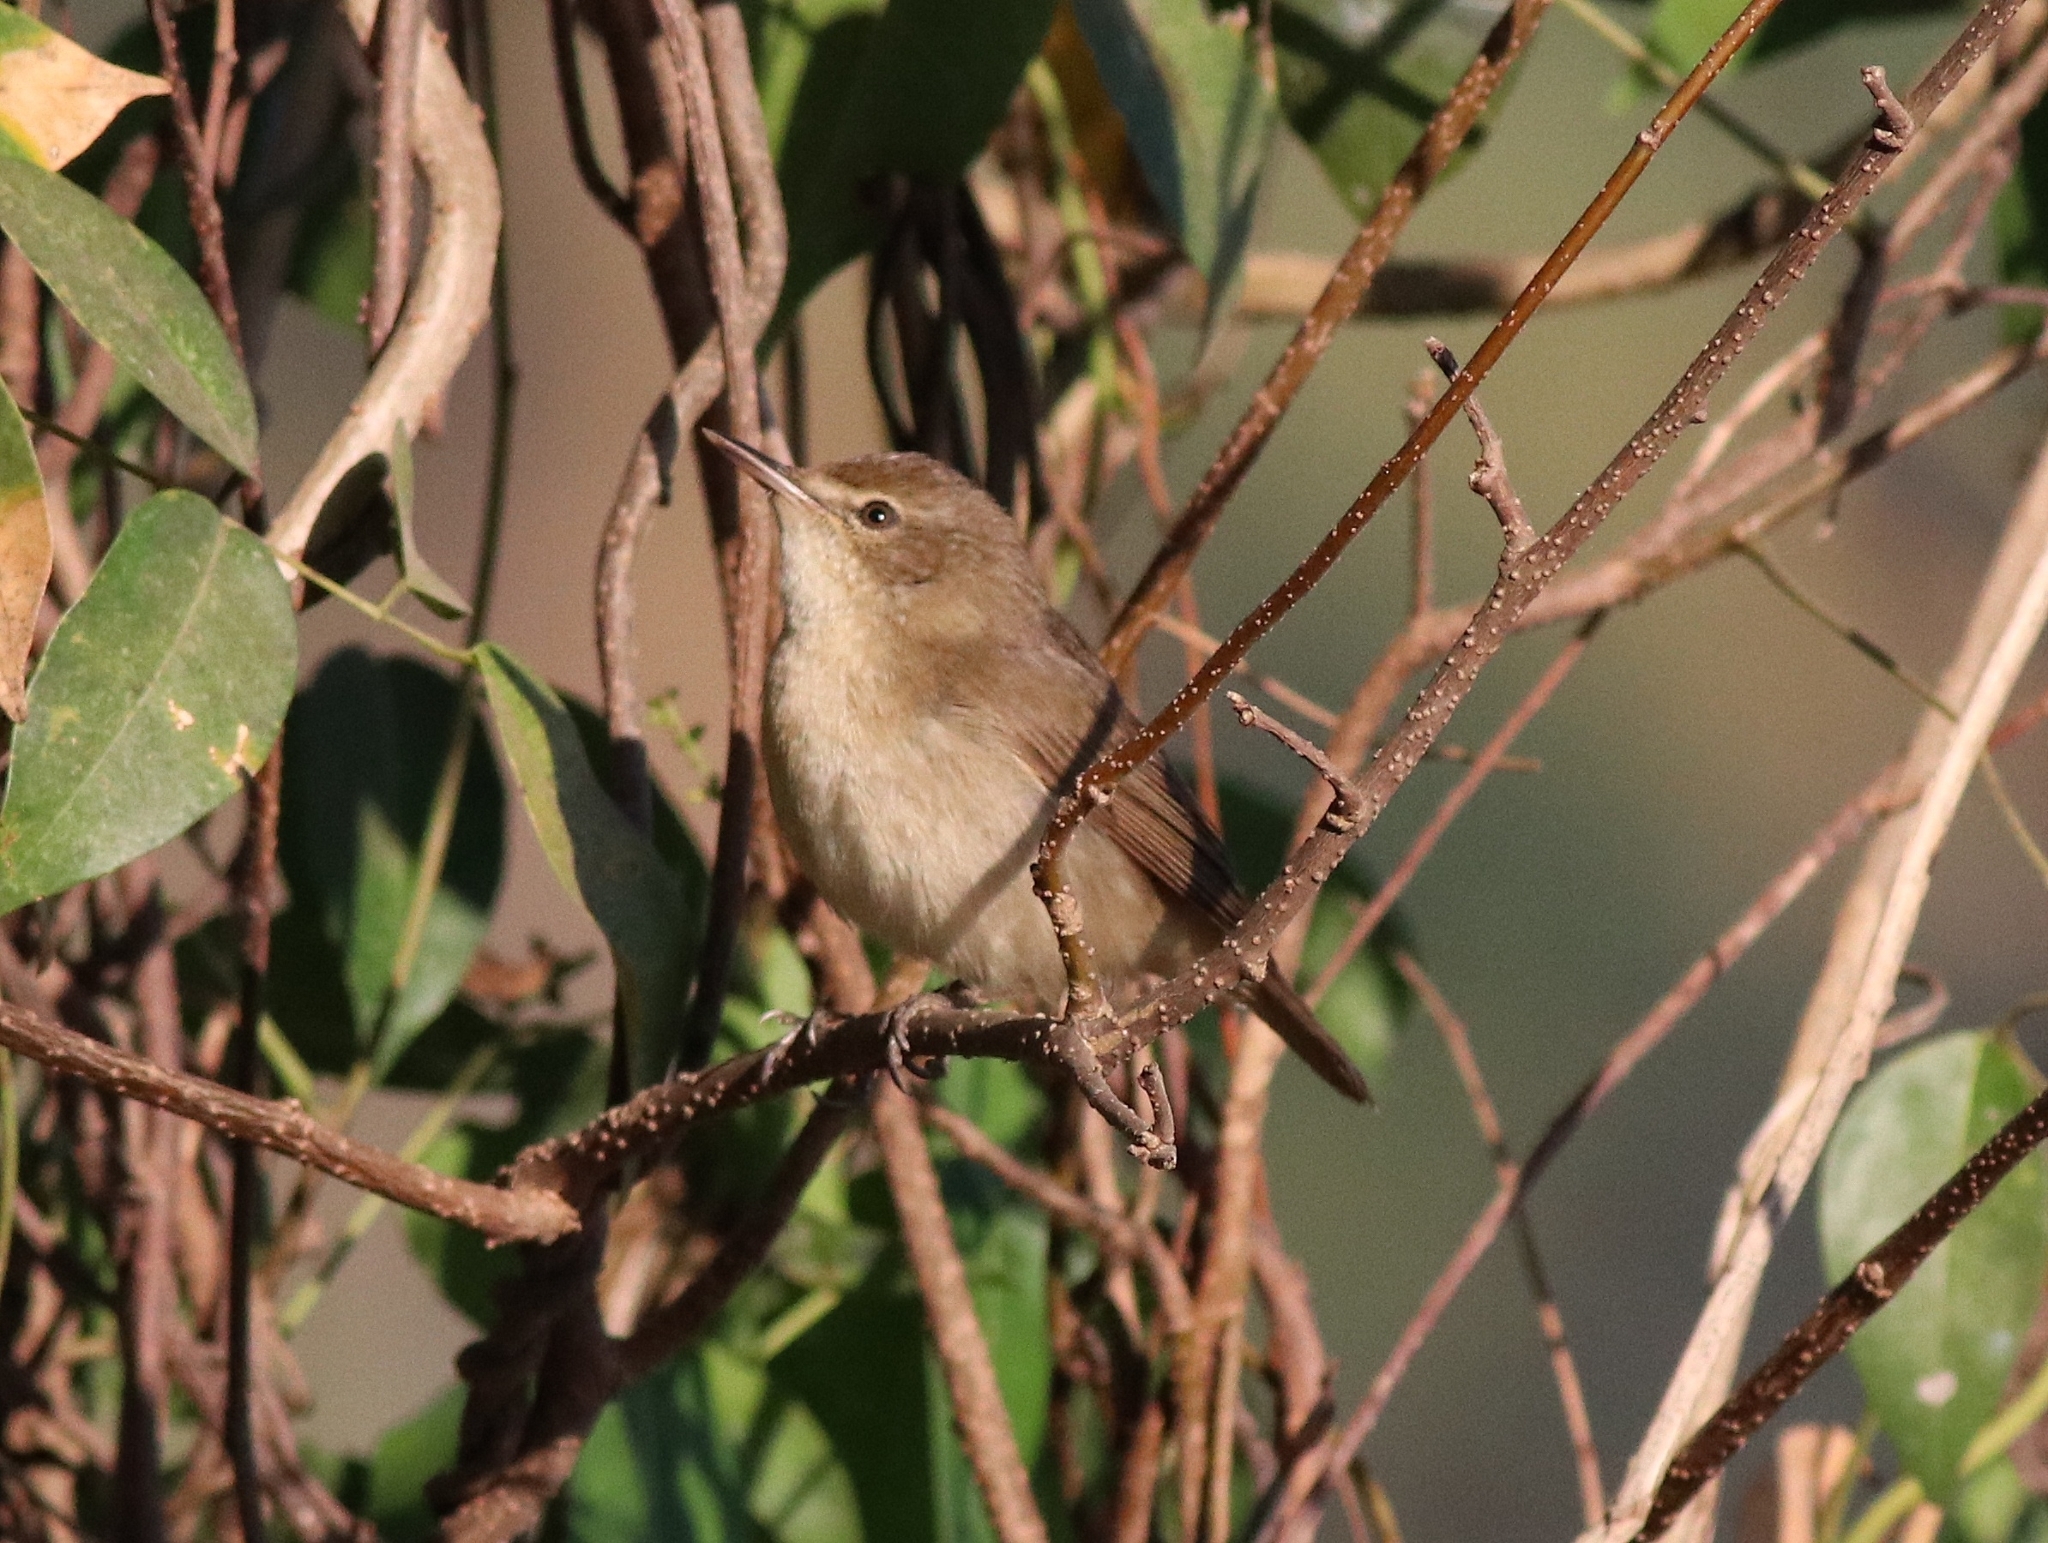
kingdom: Animalia
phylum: Chordata
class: Aves
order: Passeriformes
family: Acrocephalidae
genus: Acrocephalus
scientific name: Acrocephalus dumetorum
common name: Blyth's reed warbler
